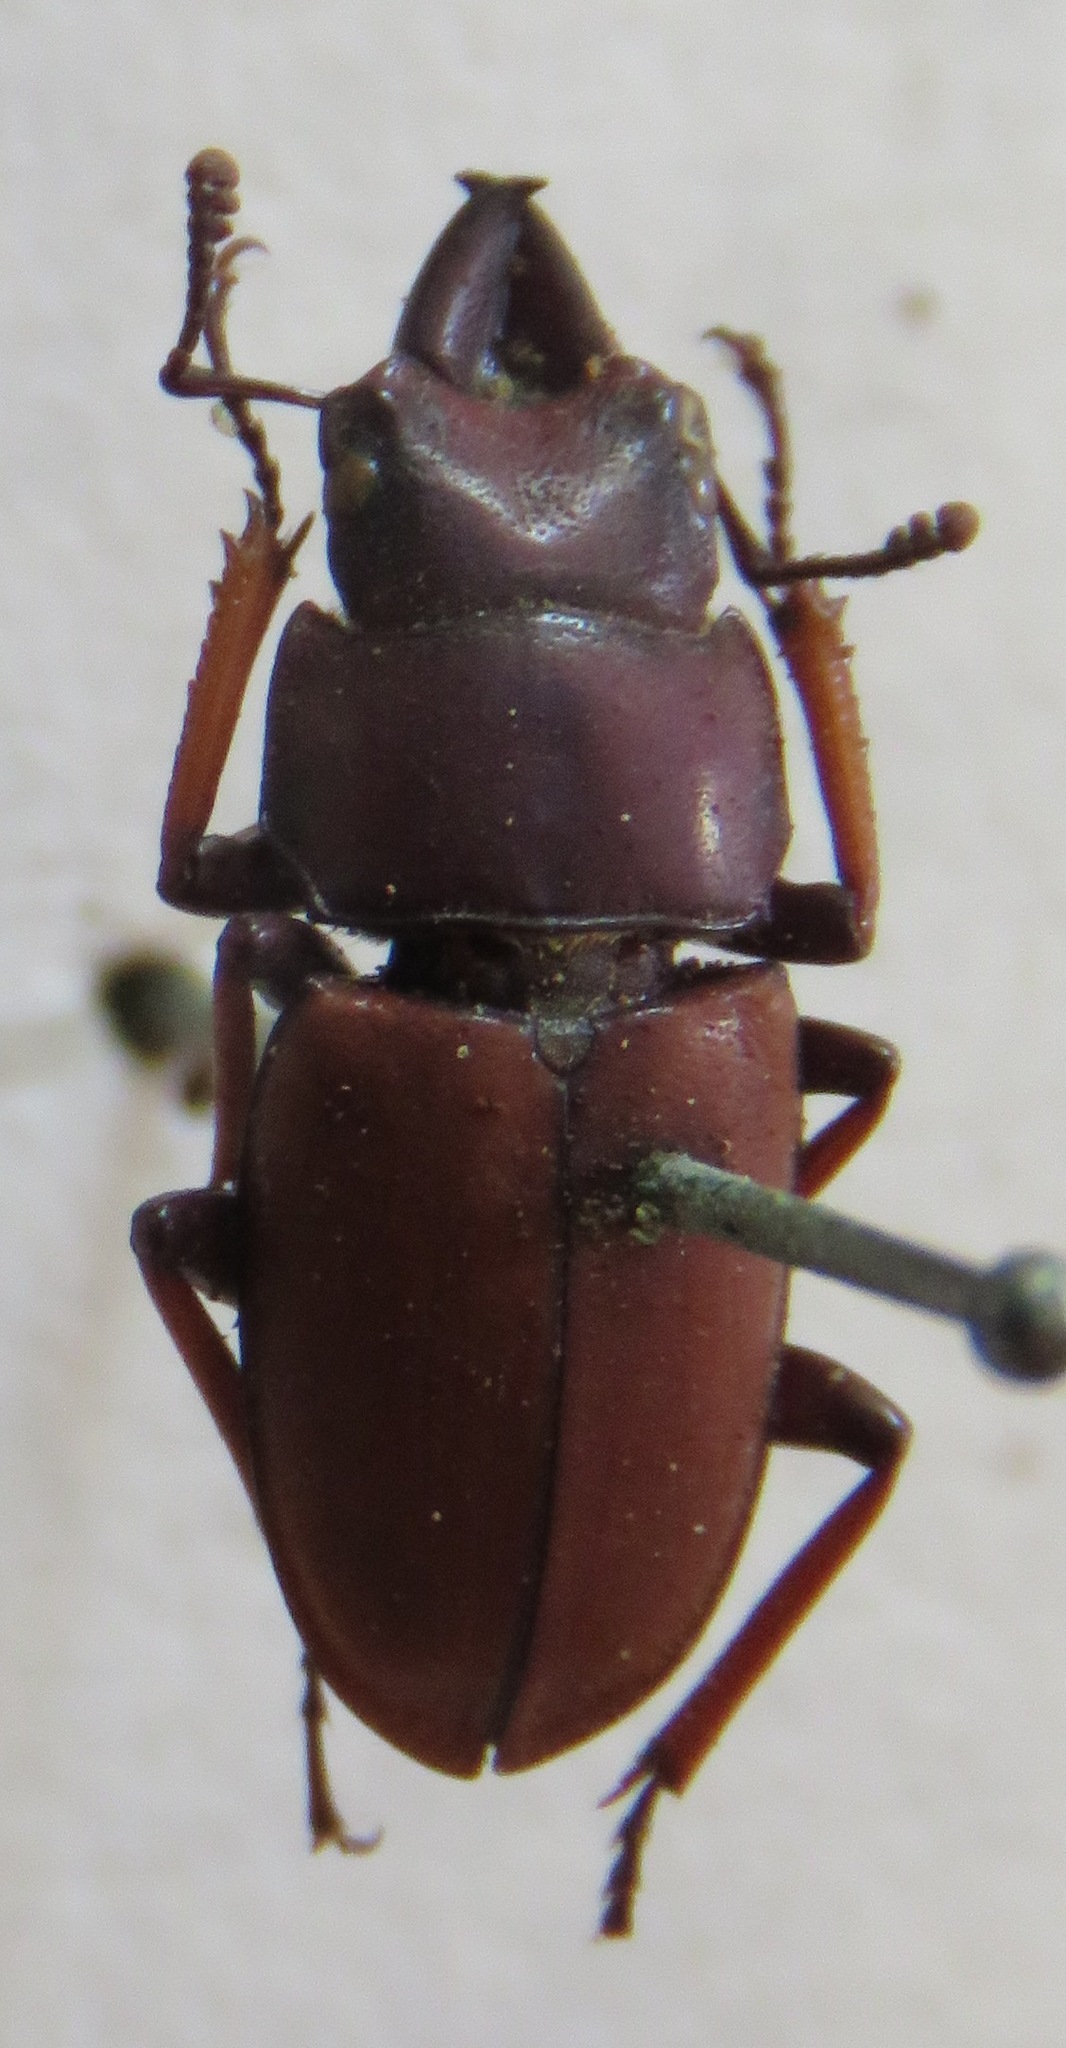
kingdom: Animalia
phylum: Arthropoda
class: Insecta
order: Coleoptera
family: Lucanidae
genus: Leptinopterus
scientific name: Leptinopterus tibialis
